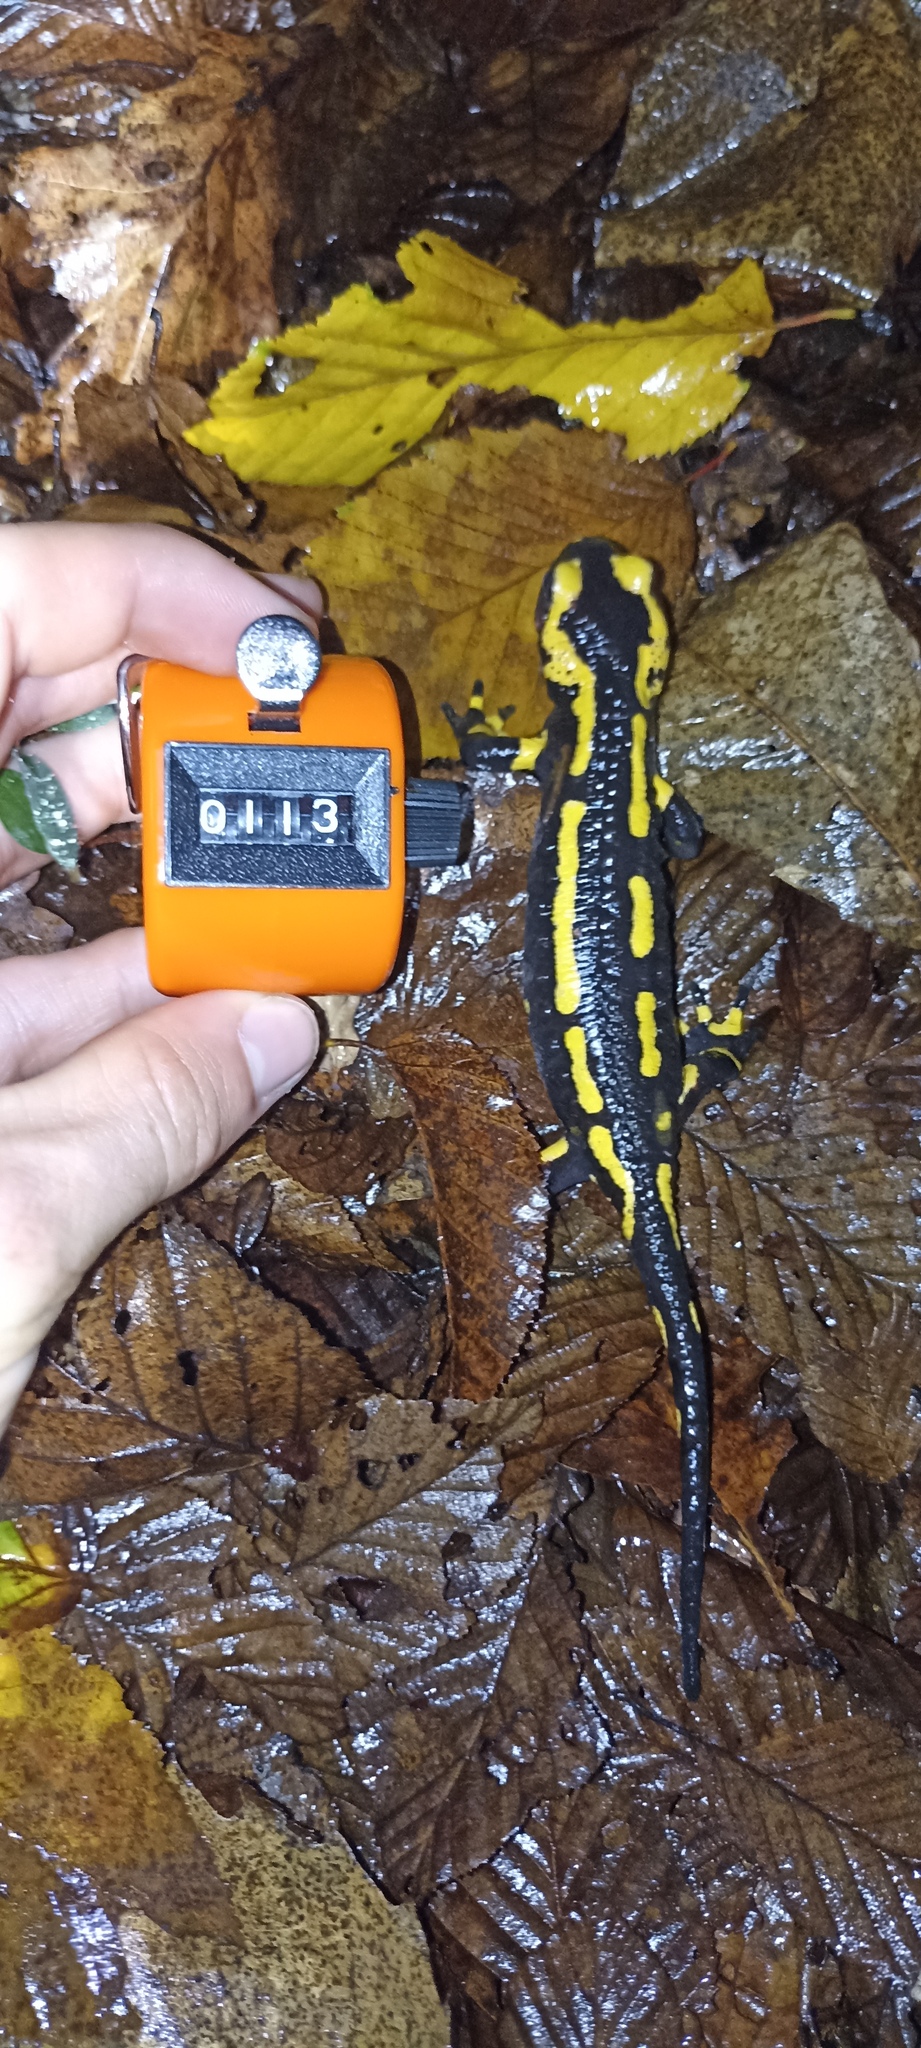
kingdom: Animalia
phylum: Chordata
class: Amphibia
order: Caudata
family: Salamandridae
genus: Salamandra
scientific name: Salamandra salamandra
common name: Fire salamander
